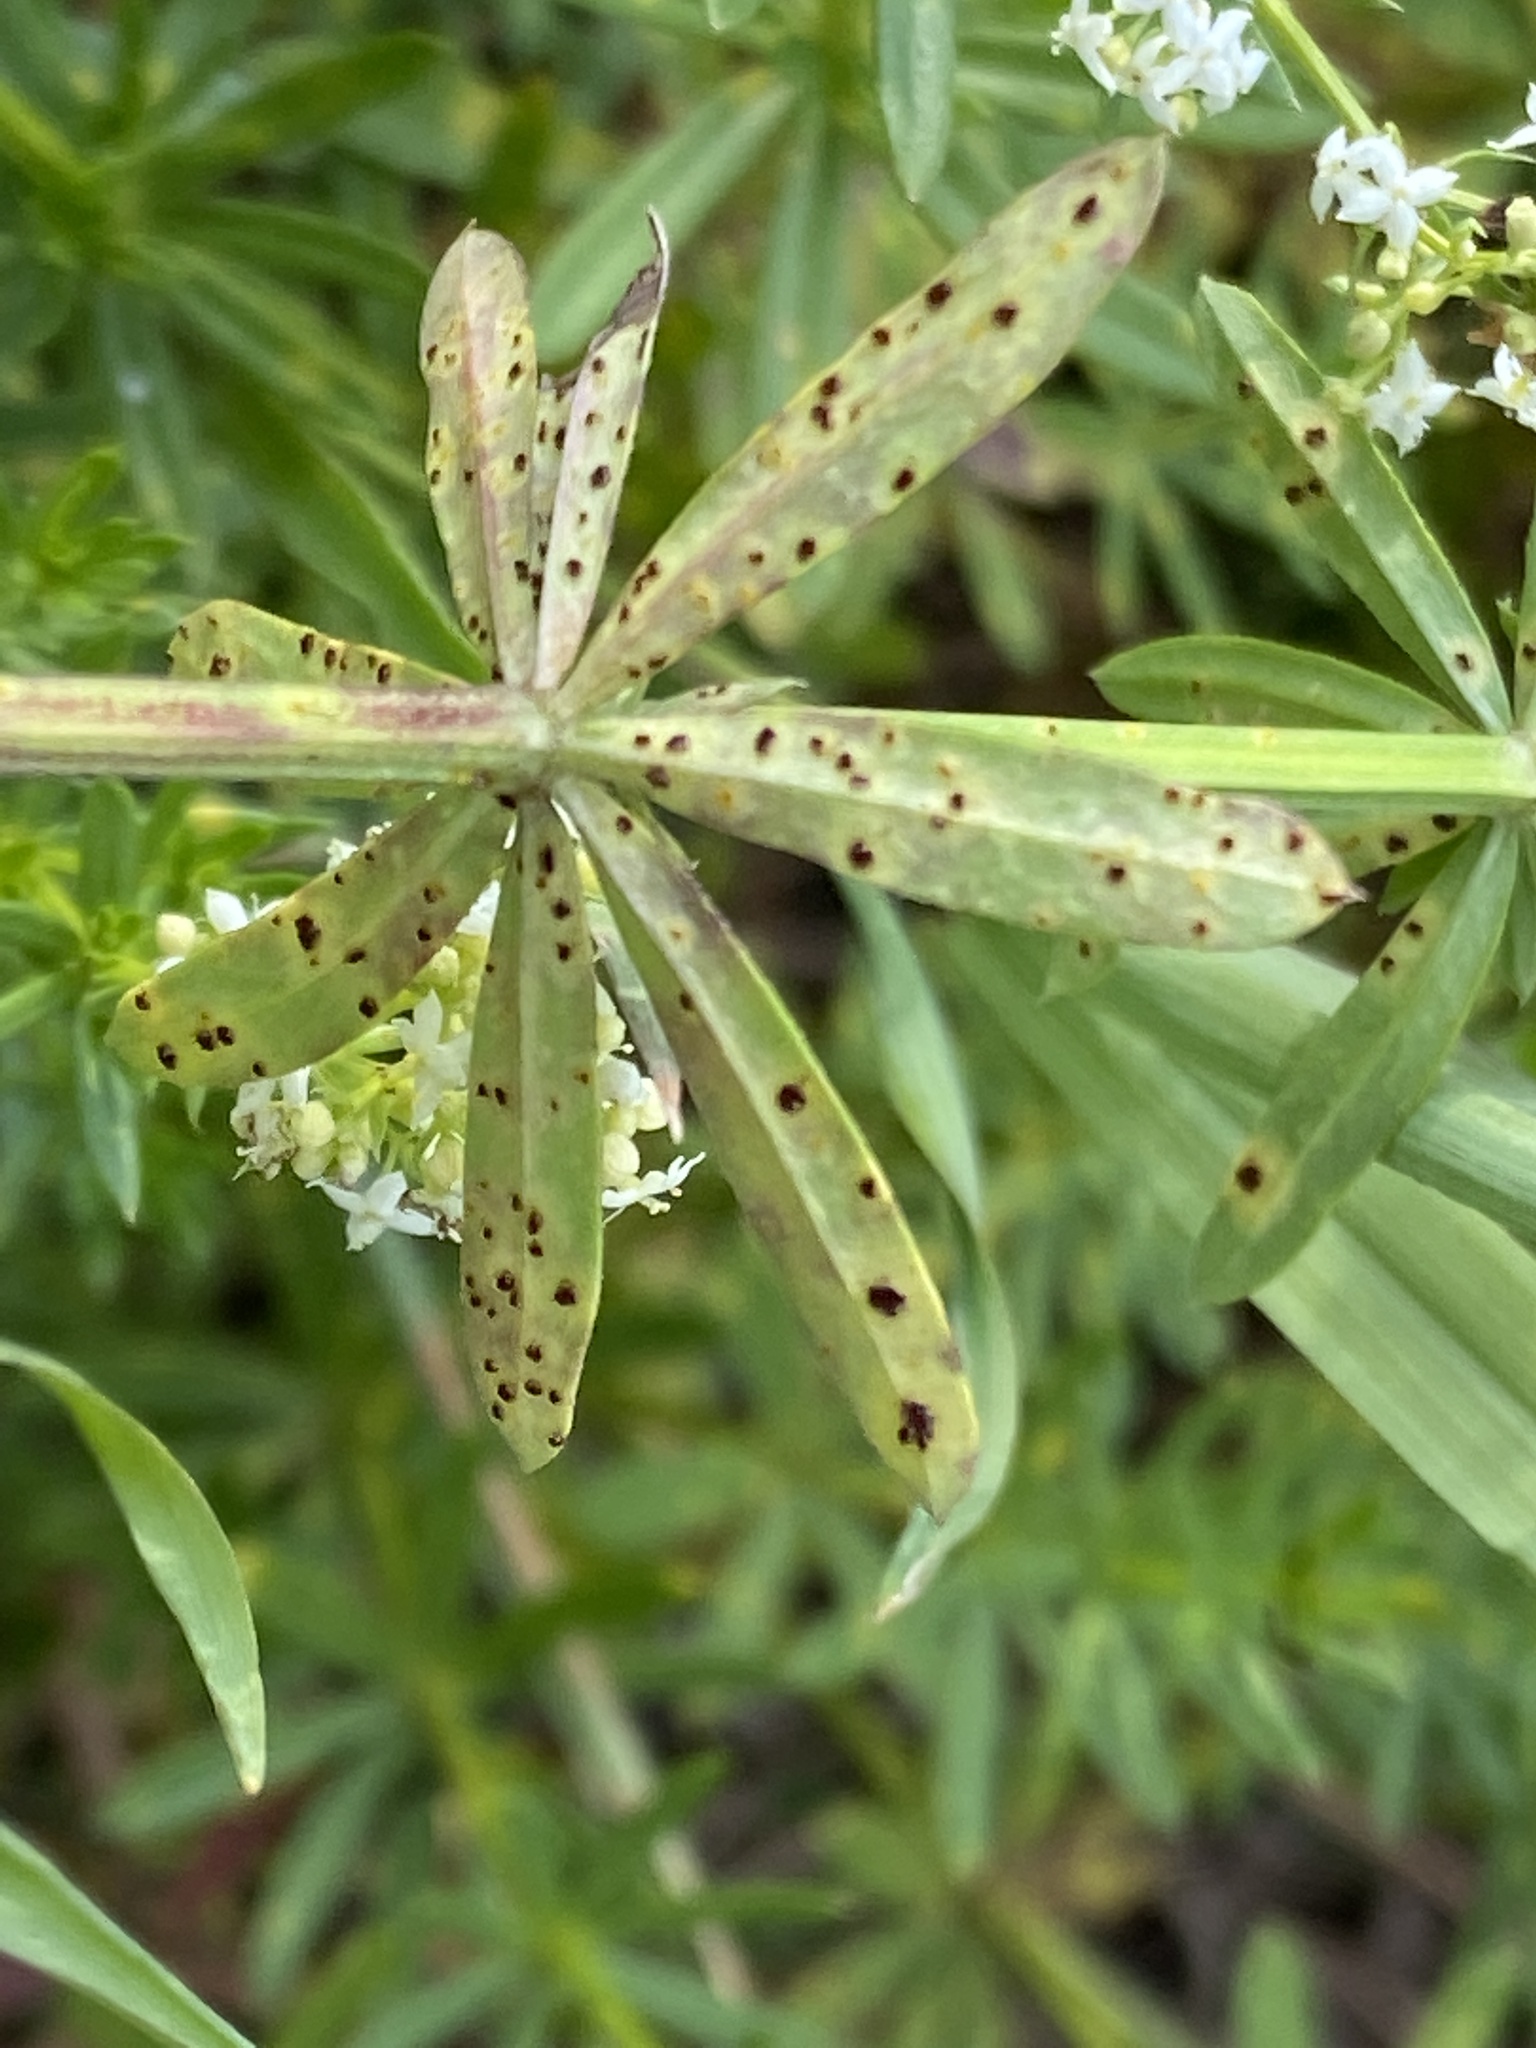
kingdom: Fungi
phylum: Basidiomycota
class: Pucciniomycetes
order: Pucciniales
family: Pucciniaceae
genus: Puccinia
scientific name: Puccinia punctata
